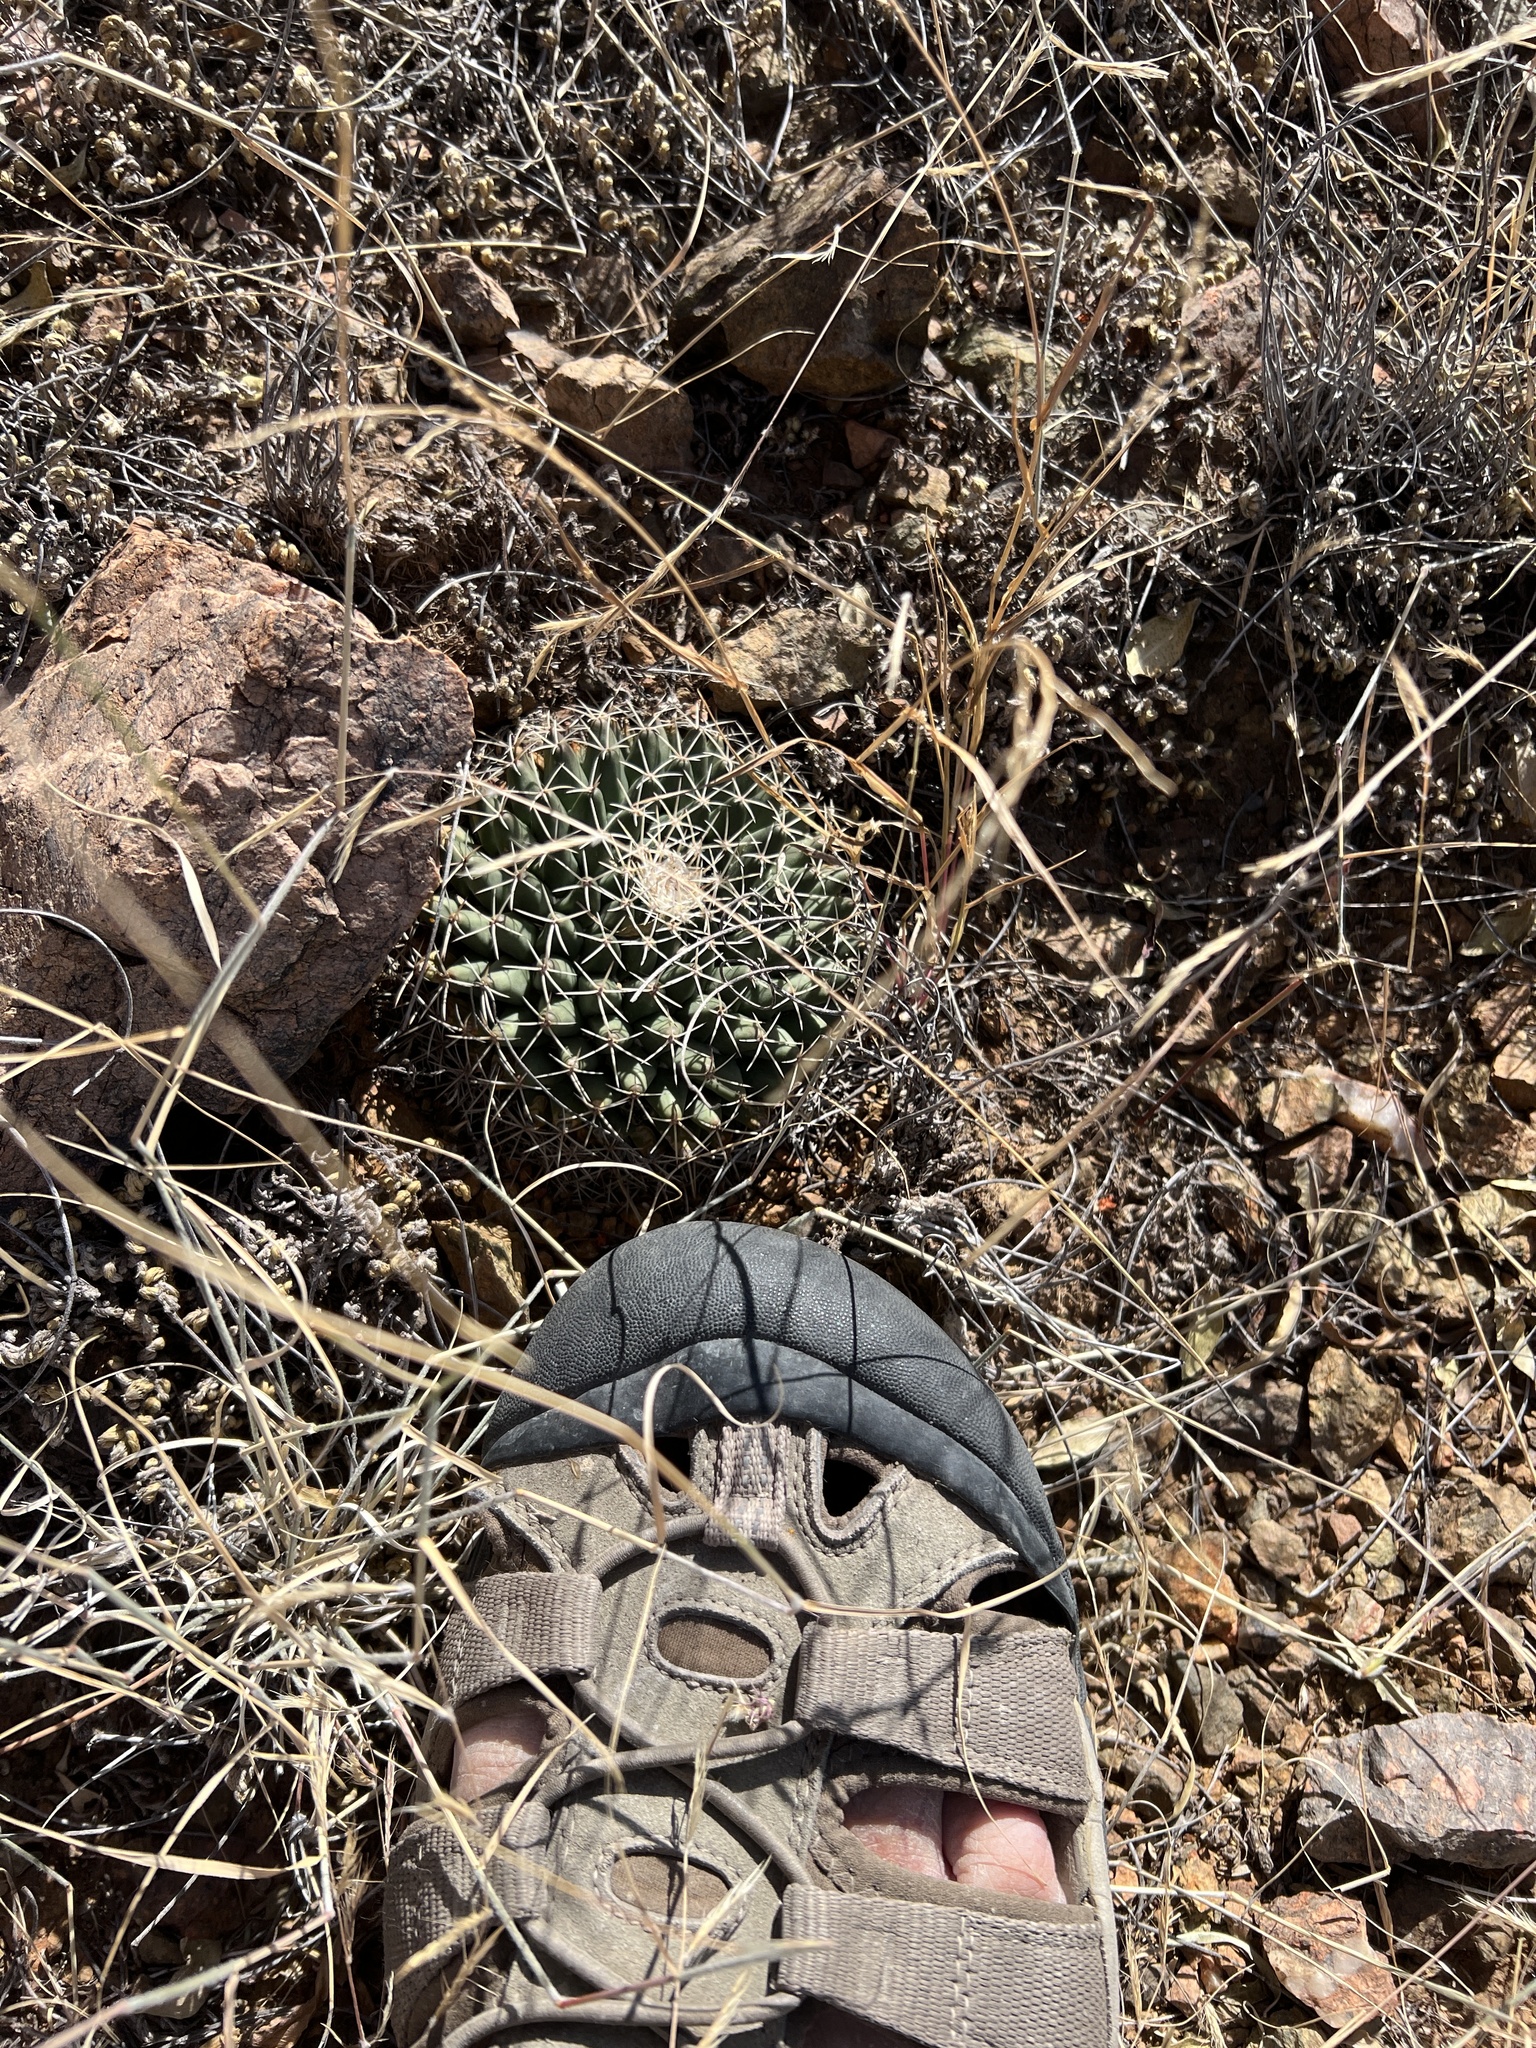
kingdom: Plantae
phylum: Tracheophyta
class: Magnoliopsida
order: Caryophyllales
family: Cactaceae
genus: Mammillaria
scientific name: Mammillaria heyderi
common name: Little nipple cactus
